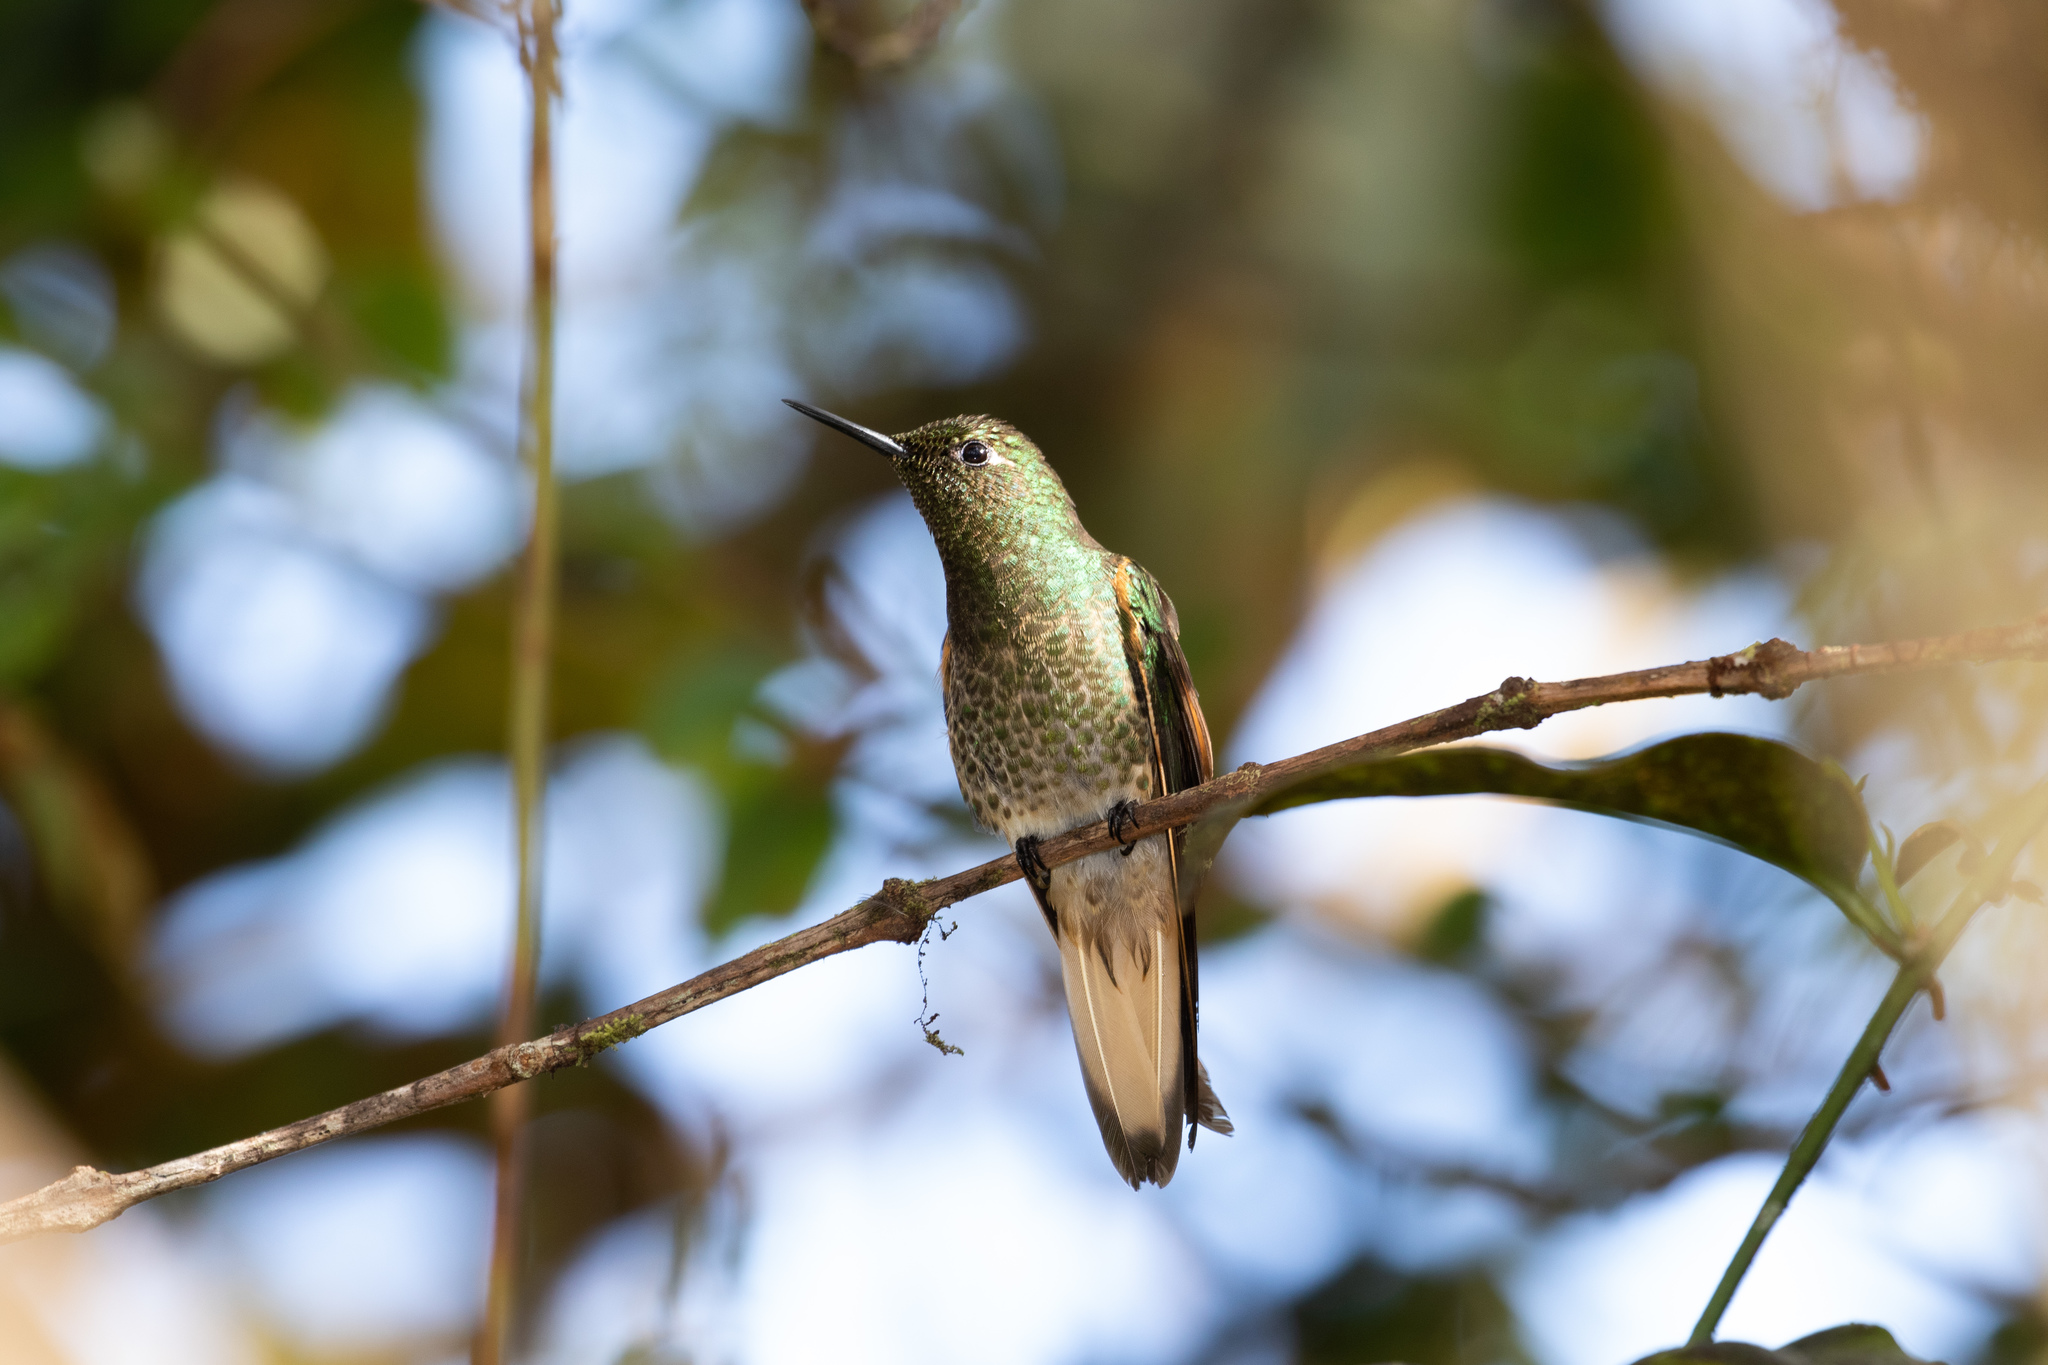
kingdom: Animalia
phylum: Chordata
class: Aves
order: Apodiformes
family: Trochilidae
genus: Boissonneaua
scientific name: Boissonneaua flavescens
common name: Buff-tailed coronet
